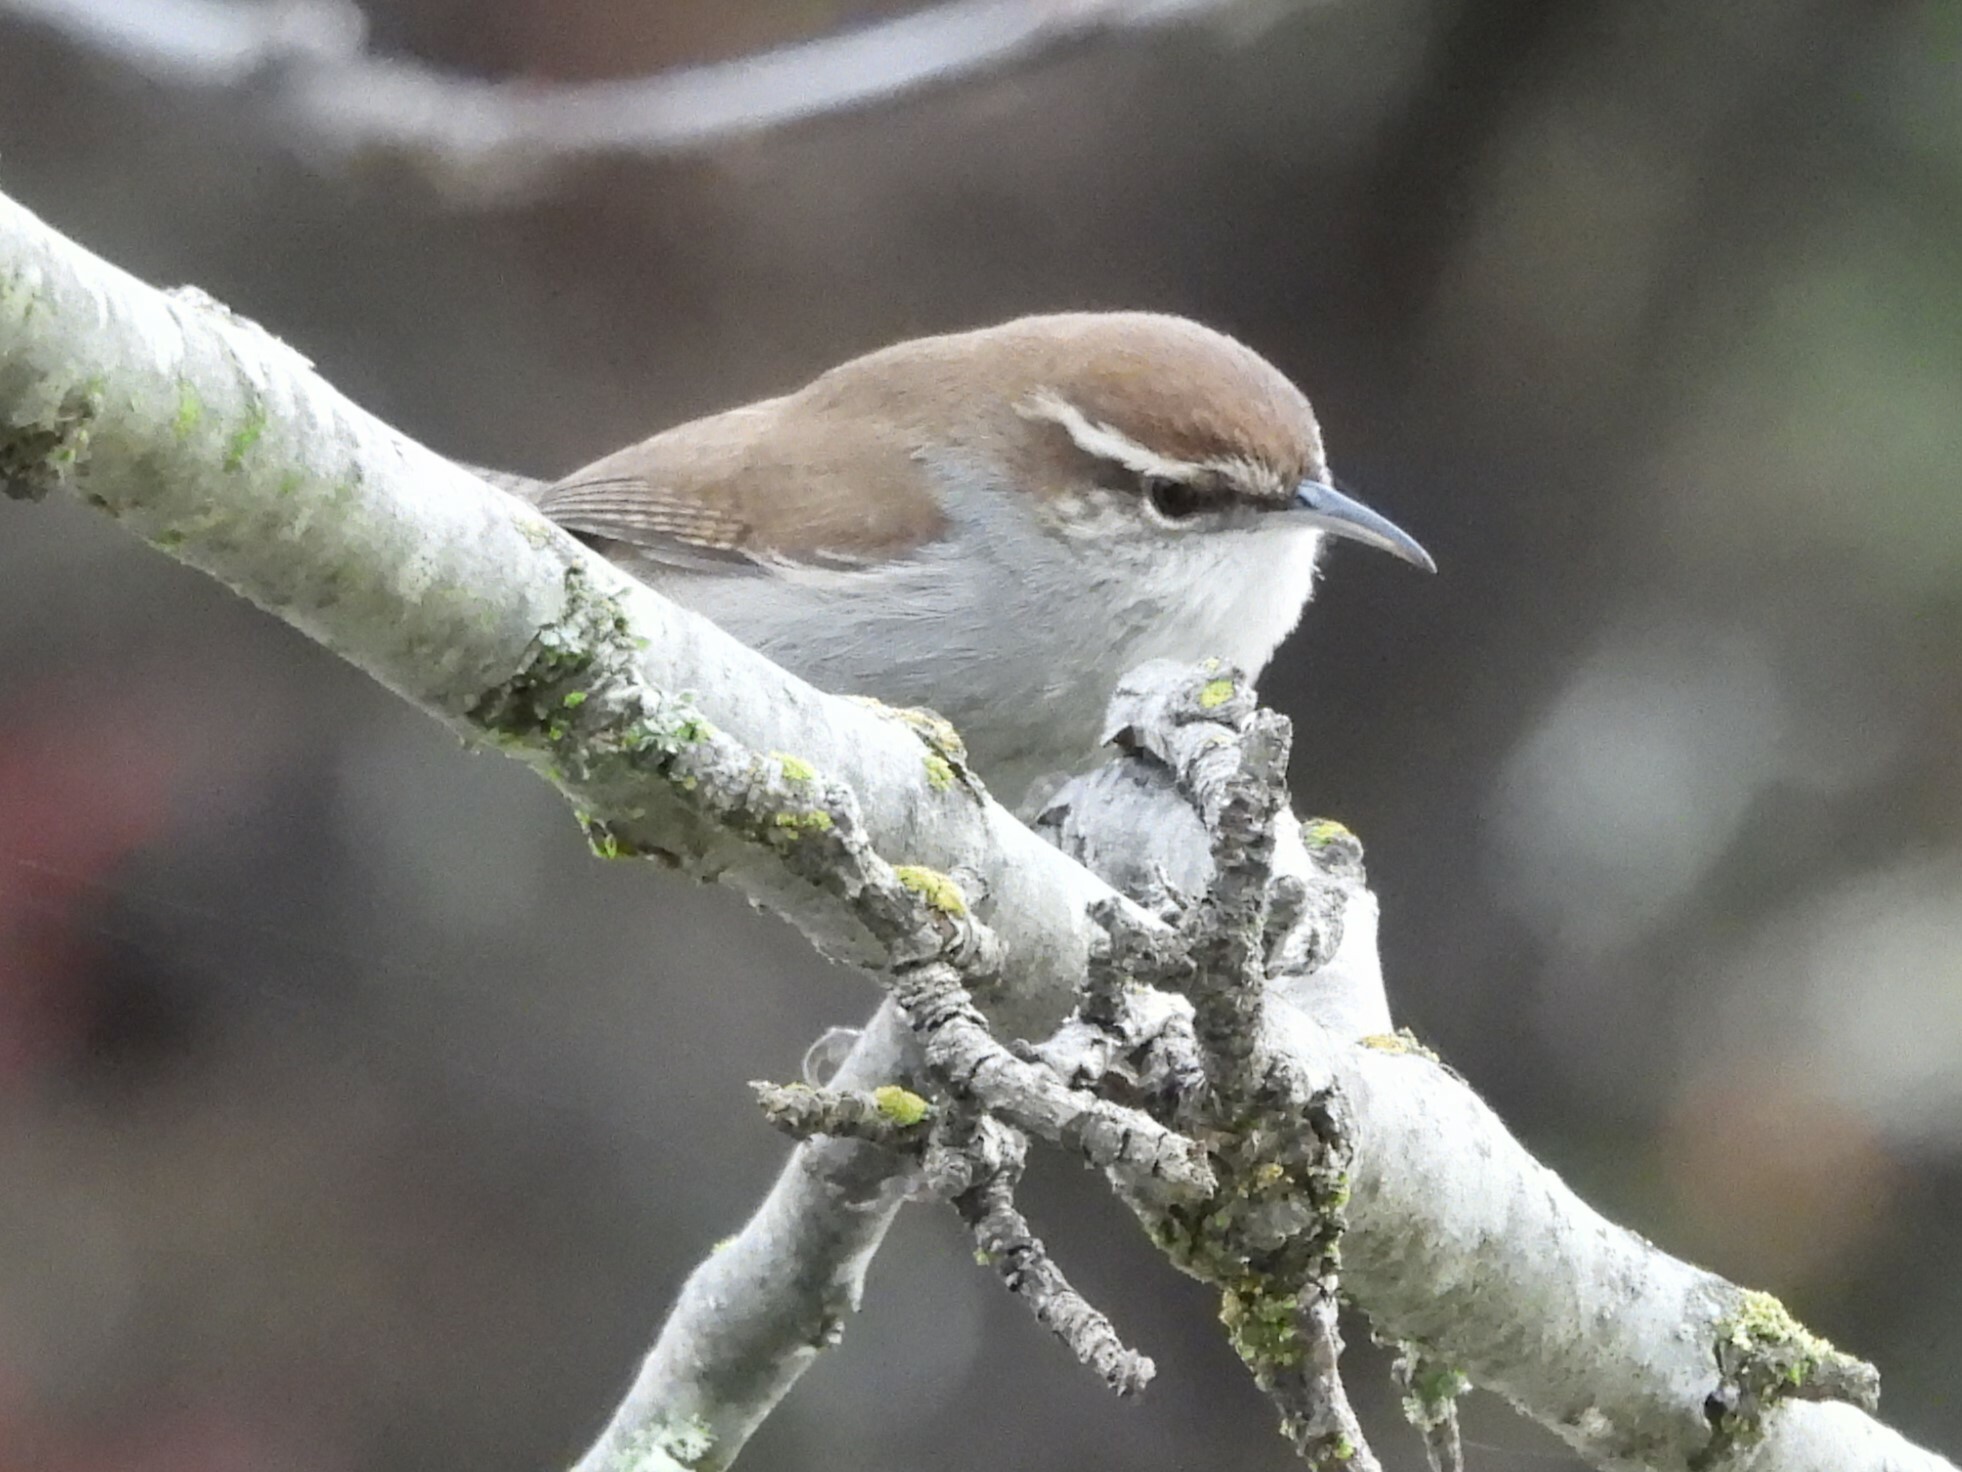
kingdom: Animalia
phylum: Chordata
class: Aves
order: Passeriformes
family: Troglodytidae
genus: Thryomanes
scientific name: Thryomanes bewickii
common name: Bewick's wren
